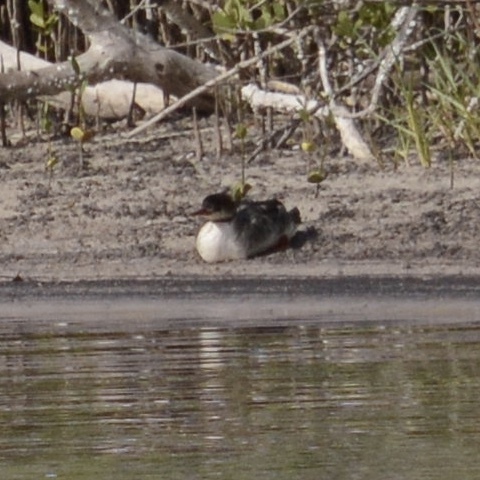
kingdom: Animalia
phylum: Chordata
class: Aves
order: Anseriformes
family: Anatidae
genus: Mergus
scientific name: Mergus serrator
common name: Red-breasted merganser
